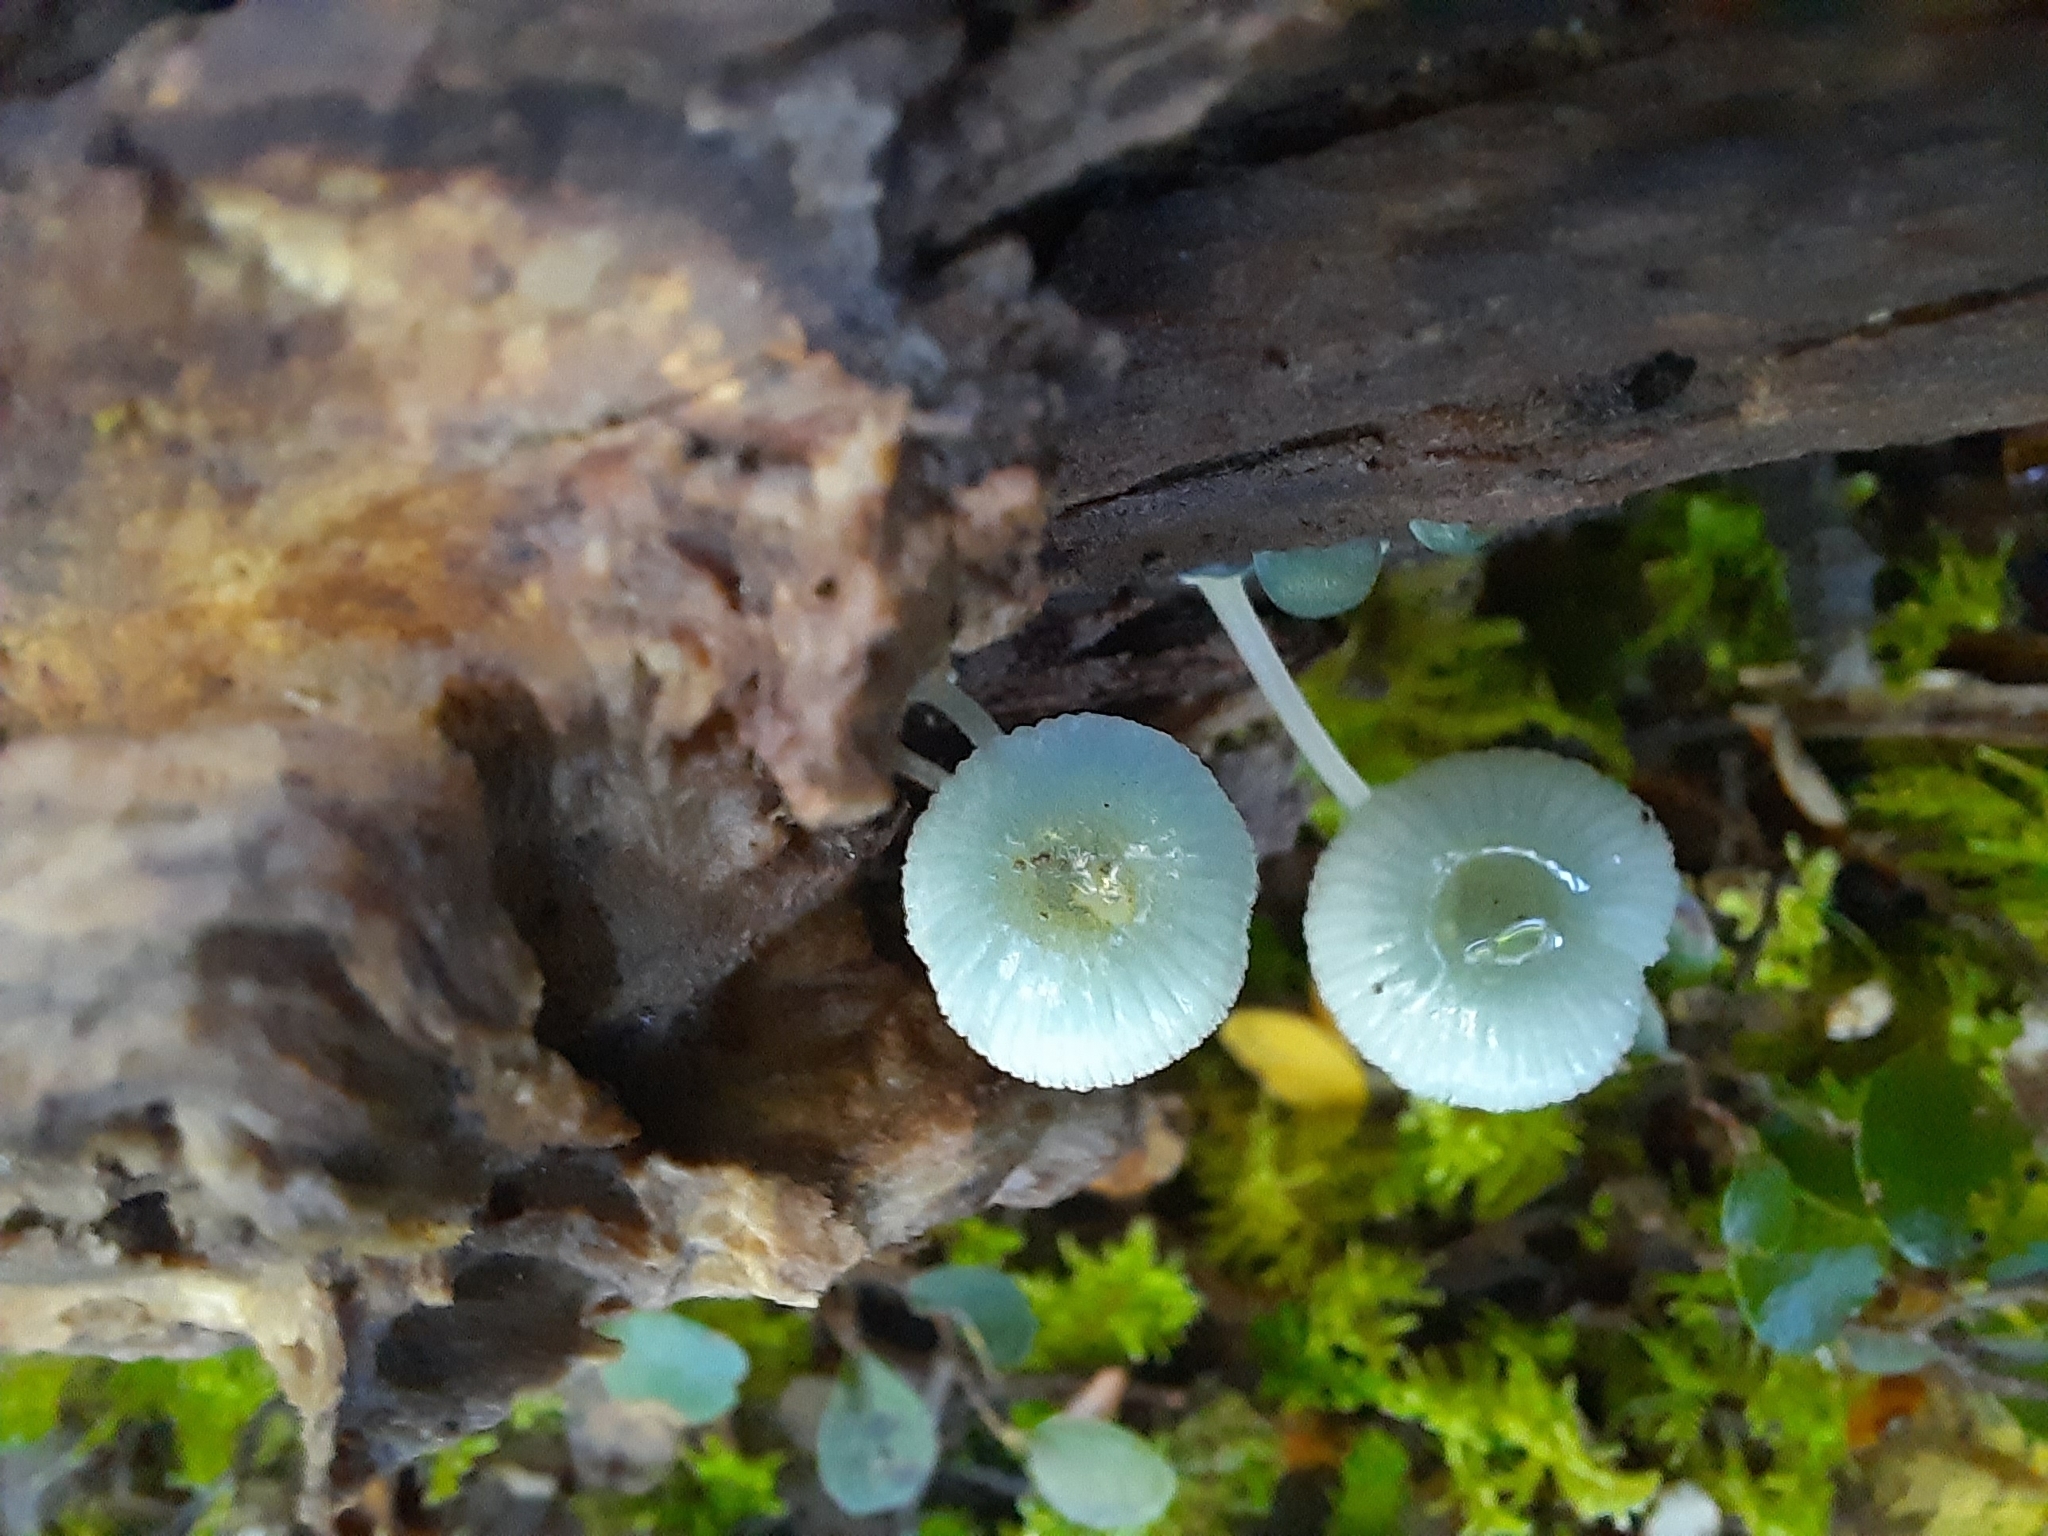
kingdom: Fungi
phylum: Basidiomycota
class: Agaricomycetes
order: Agaricales
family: Mycenaceae
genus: Mycena
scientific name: Mycena interrupta
